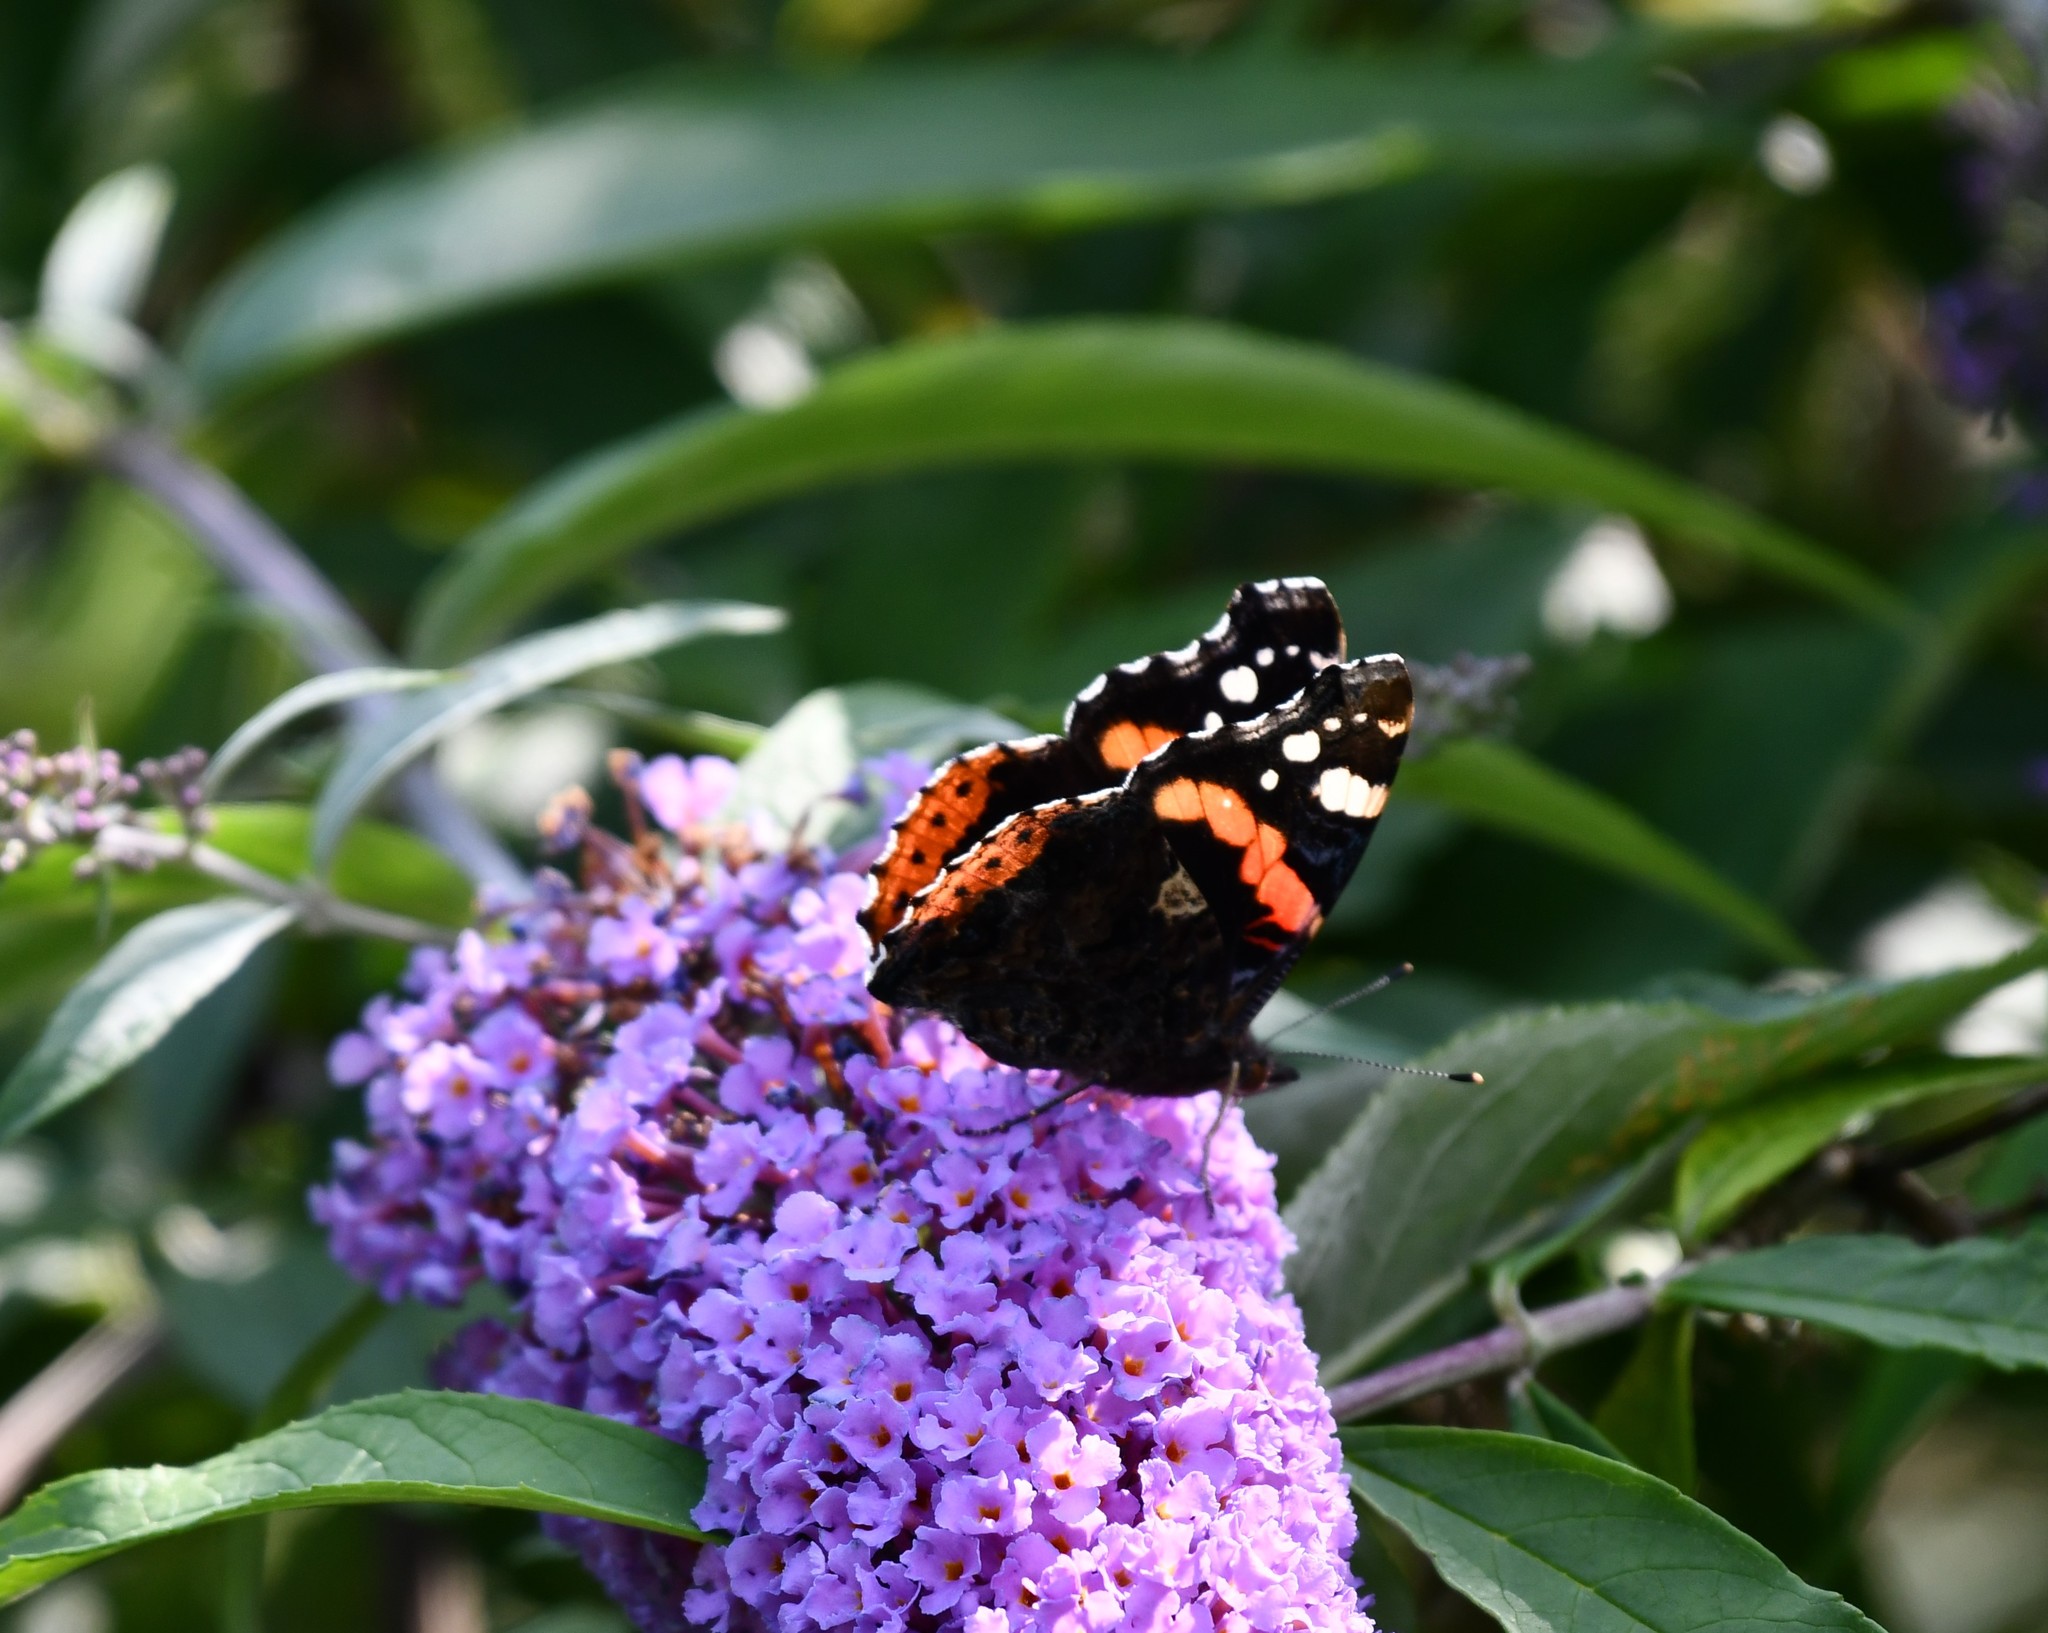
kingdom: Animalia
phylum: Arthropoda
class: Insecta
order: Lepidoptera
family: Nymphalidae
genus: Vanessa
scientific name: Vanessa atalanta
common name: Red admiral
